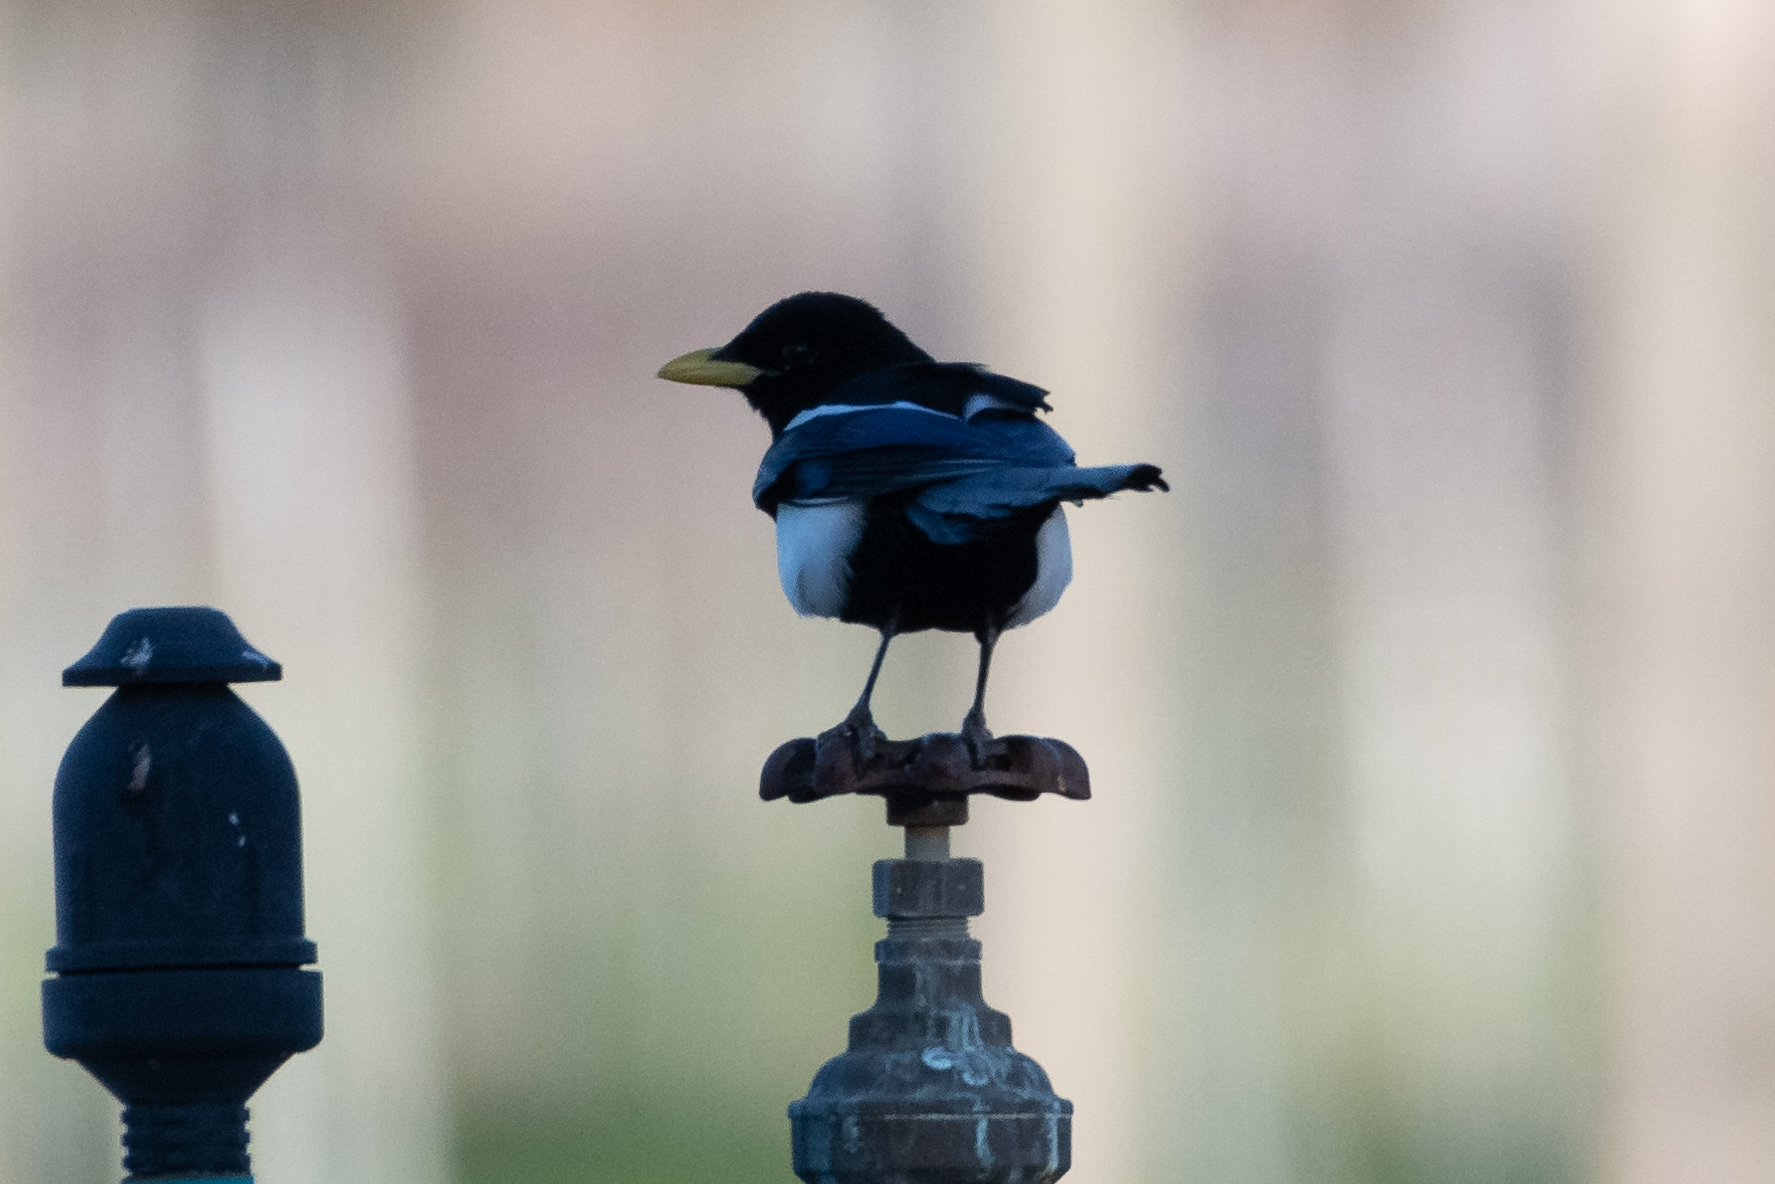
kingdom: Animalia
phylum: Chordata
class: Aves
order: Passeriformes
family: Corvidae
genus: Pica
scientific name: Pica nuttalli
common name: Yellow-billed magpie
